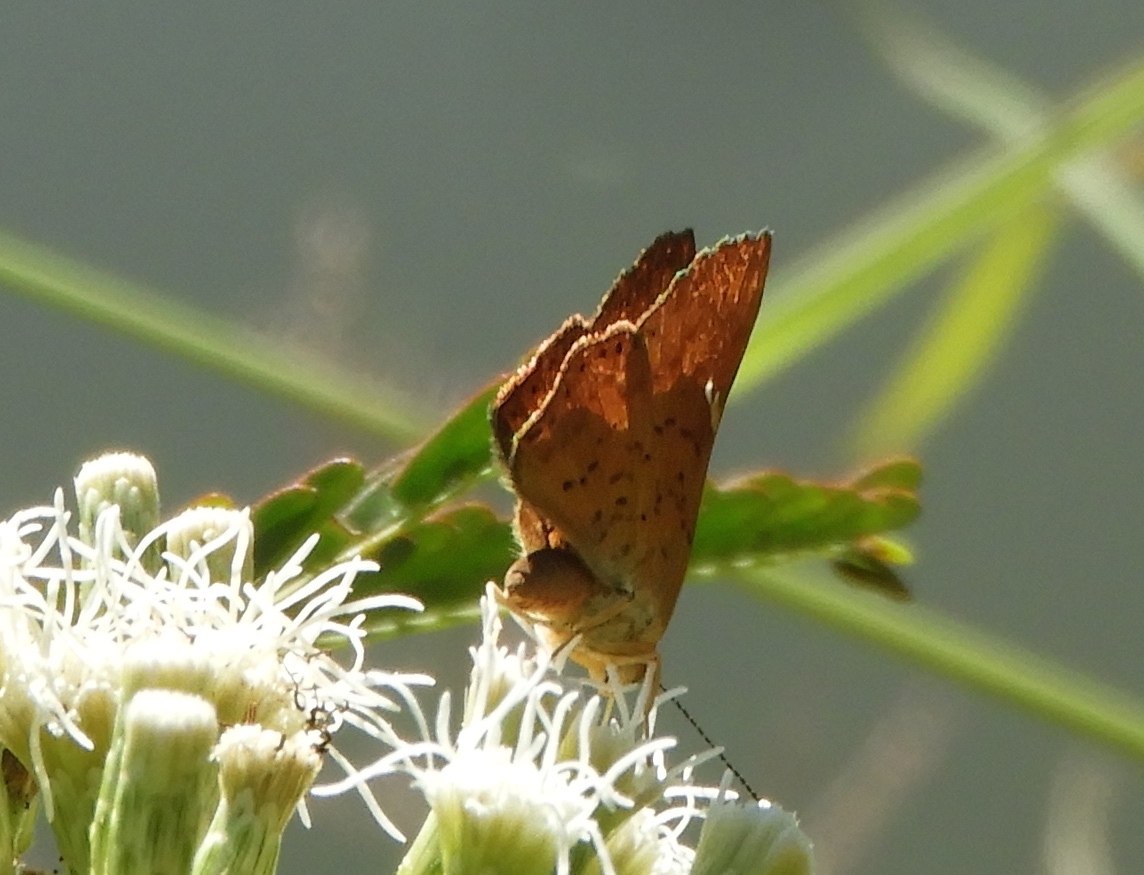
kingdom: Animalia
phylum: Arthropoda
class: Insecta
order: Lepidoptera
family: Riodinidae
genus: Curvie
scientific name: Curvie emesia
